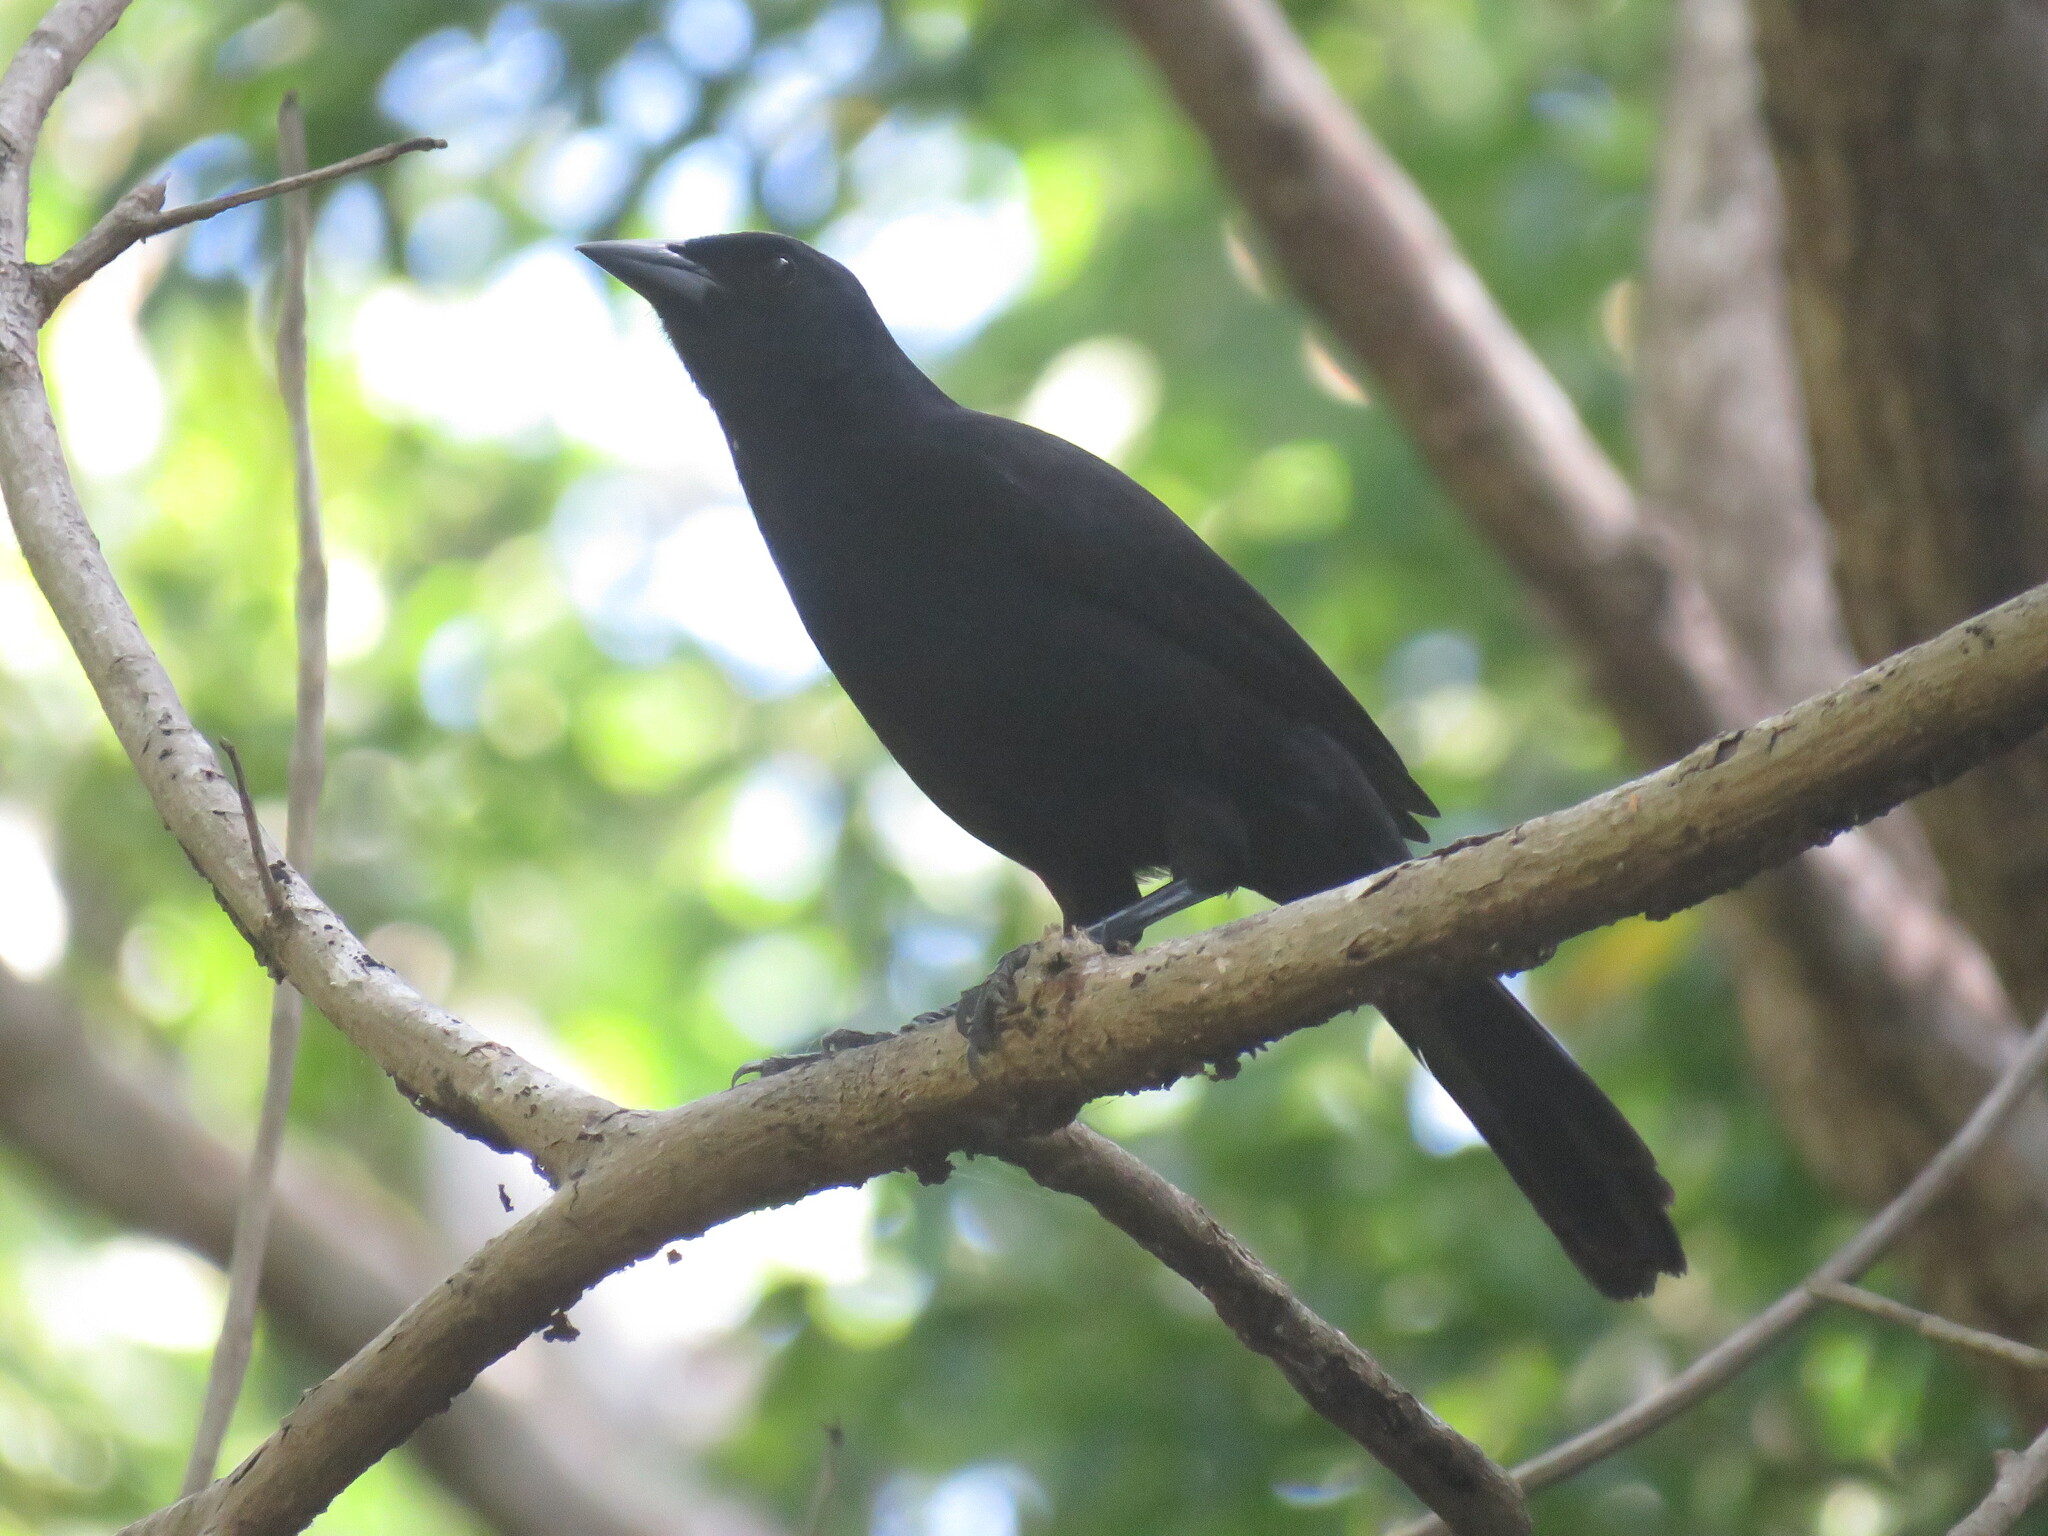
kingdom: Animalia
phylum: Chordata
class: Aves
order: Passeriformes
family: Icteridae
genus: Dives
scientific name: Dives dives
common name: Melodious blackbird
